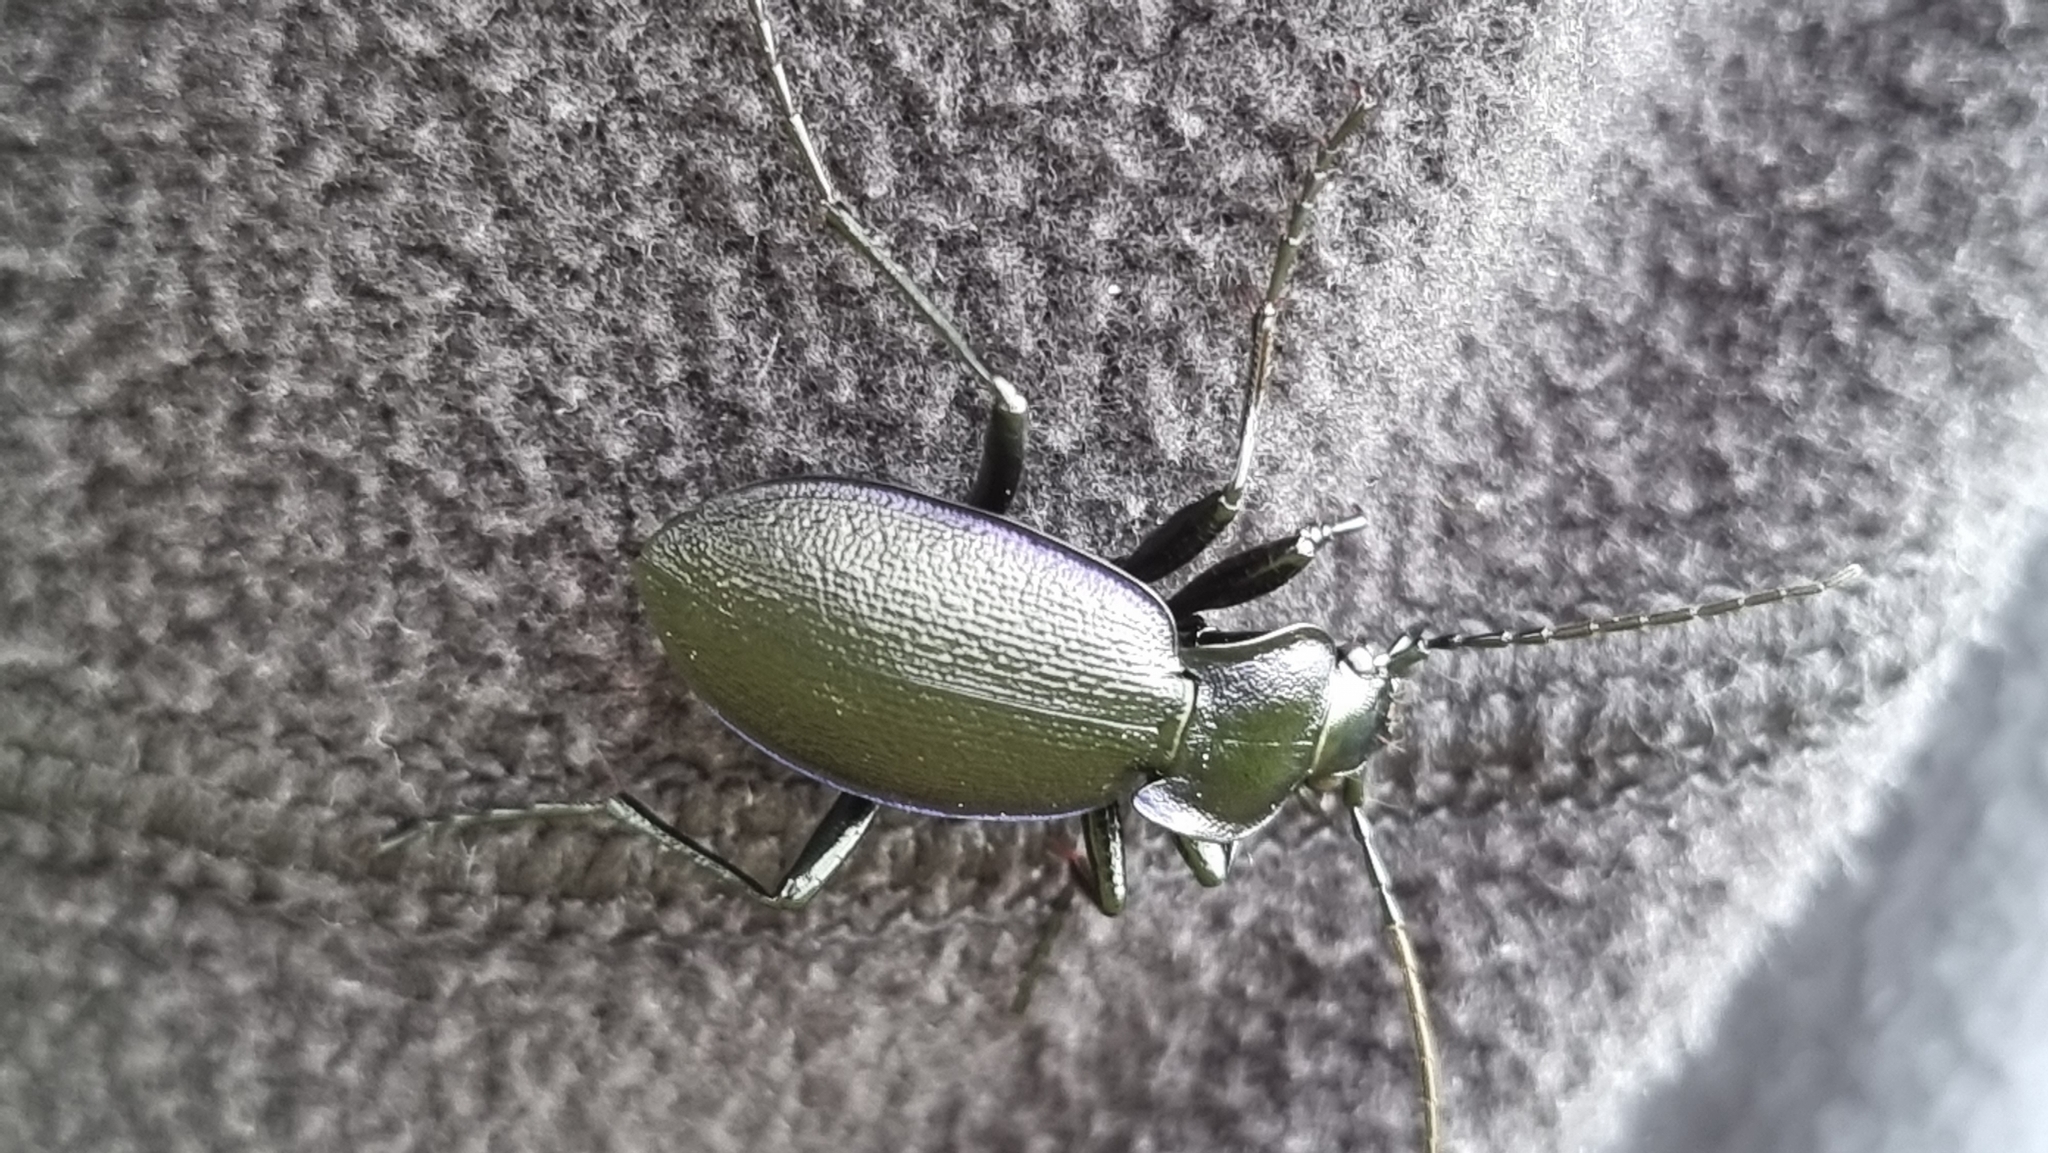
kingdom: Animalia
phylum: Arthropoda
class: Insecta
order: Coleoptera
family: Carabidae
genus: Carabus
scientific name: Carabus problematicus
